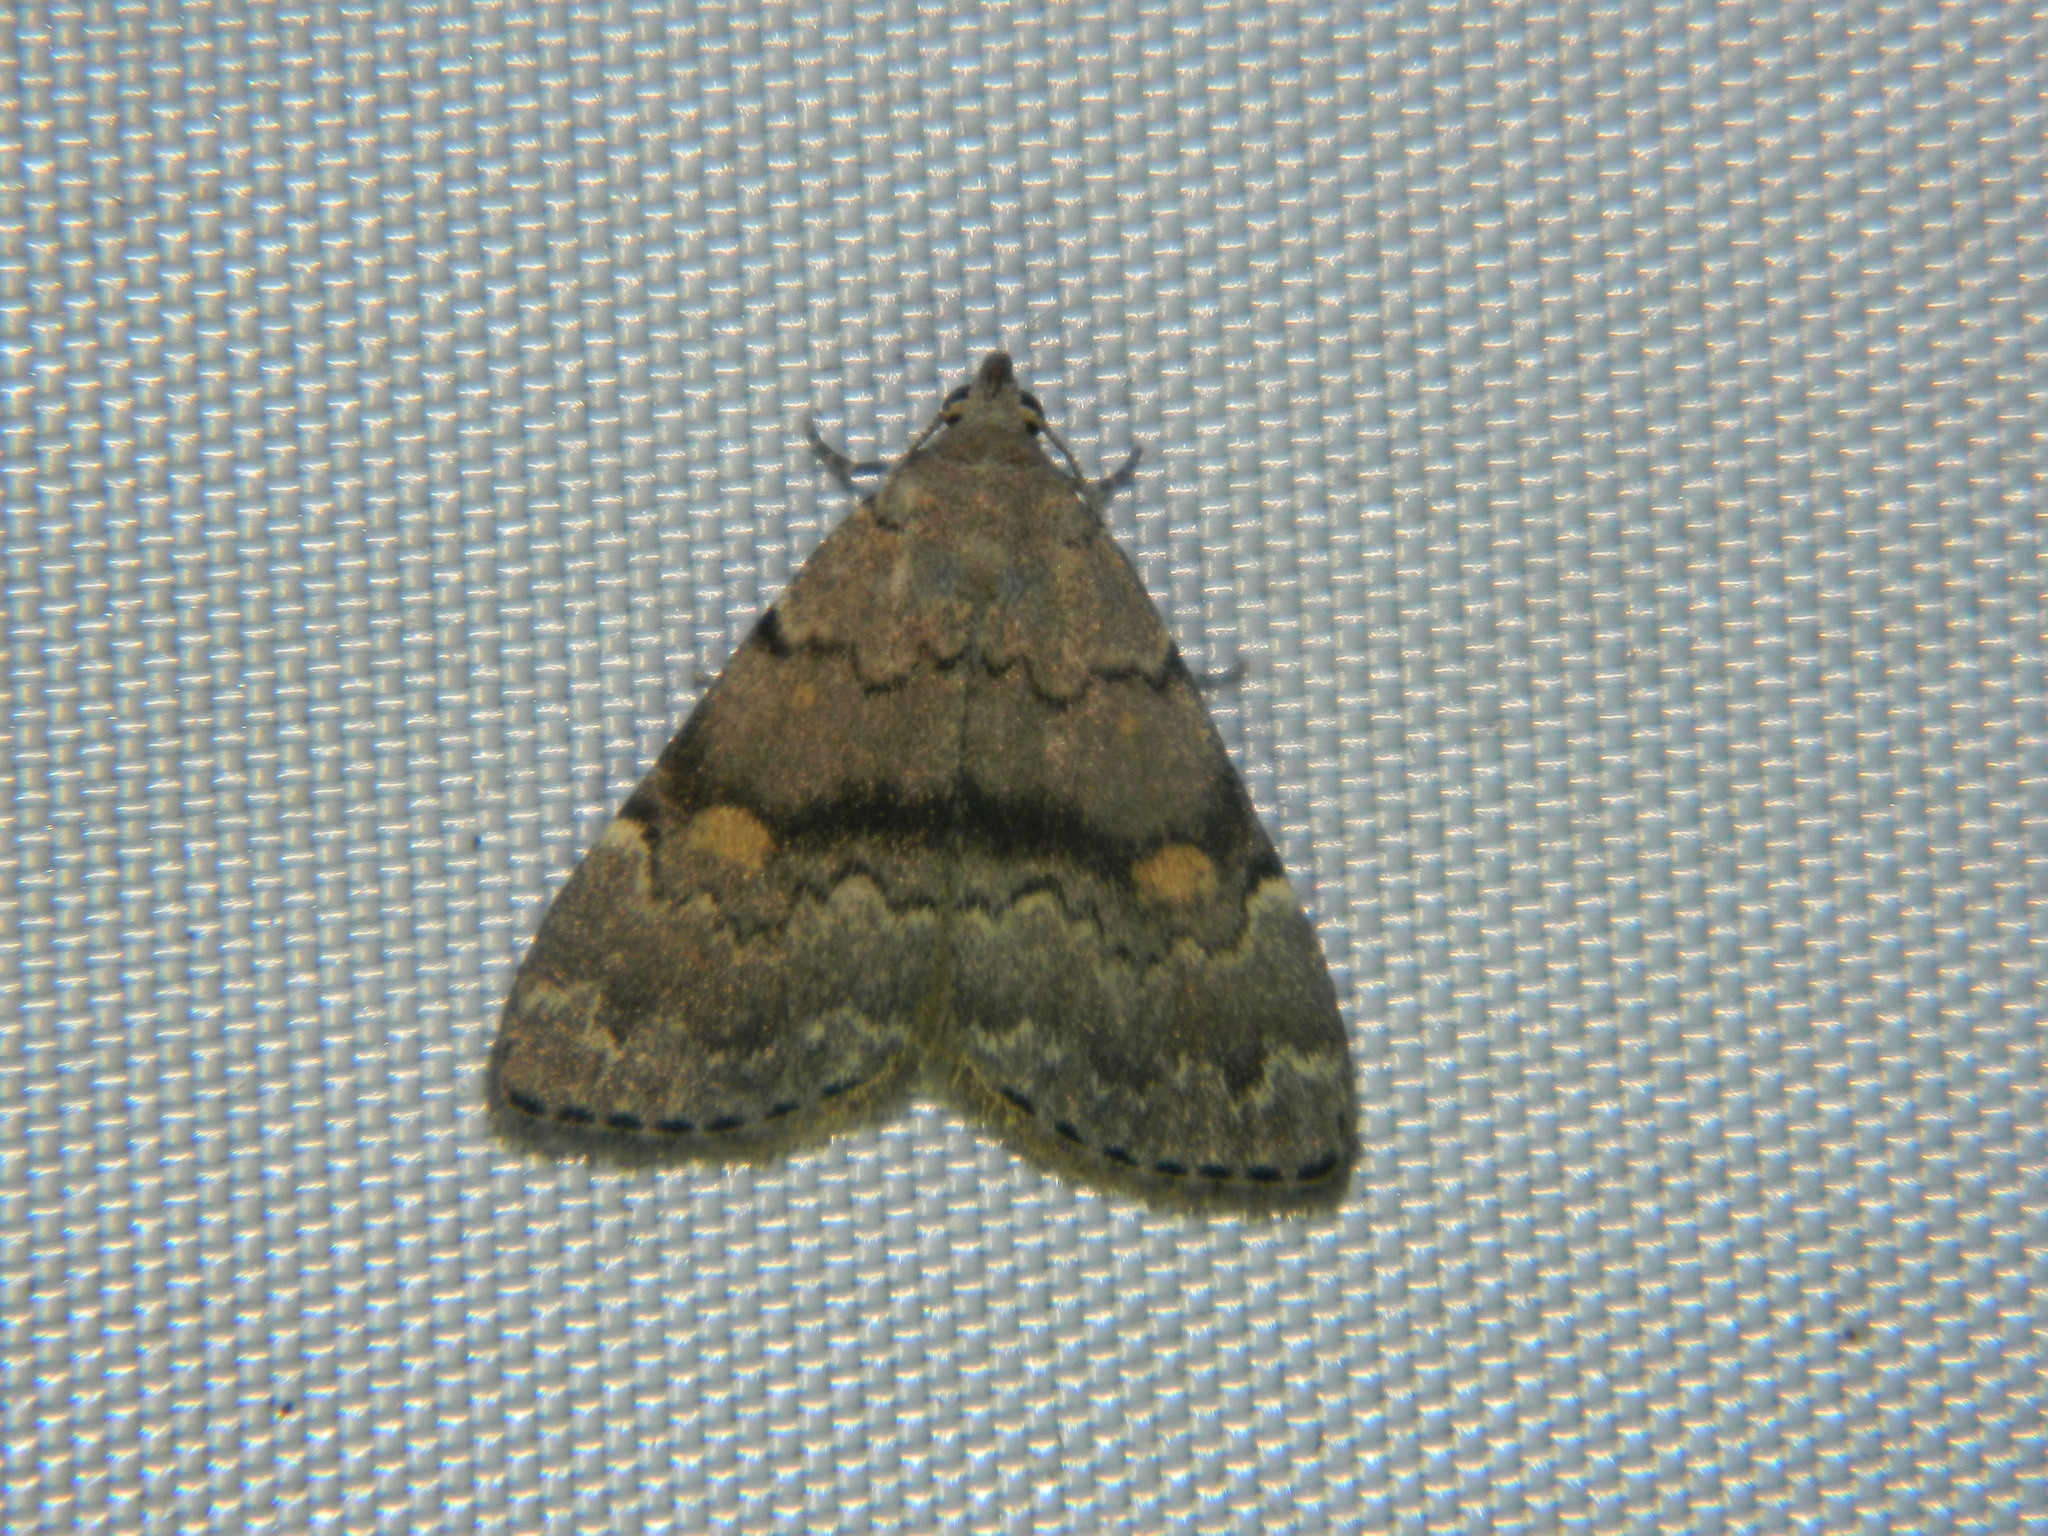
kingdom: Animalia
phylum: Arthropoda
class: Insecta
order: Lepidoptera
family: Erebidae
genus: Idia
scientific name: Idia aemula
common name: Common idia moth
